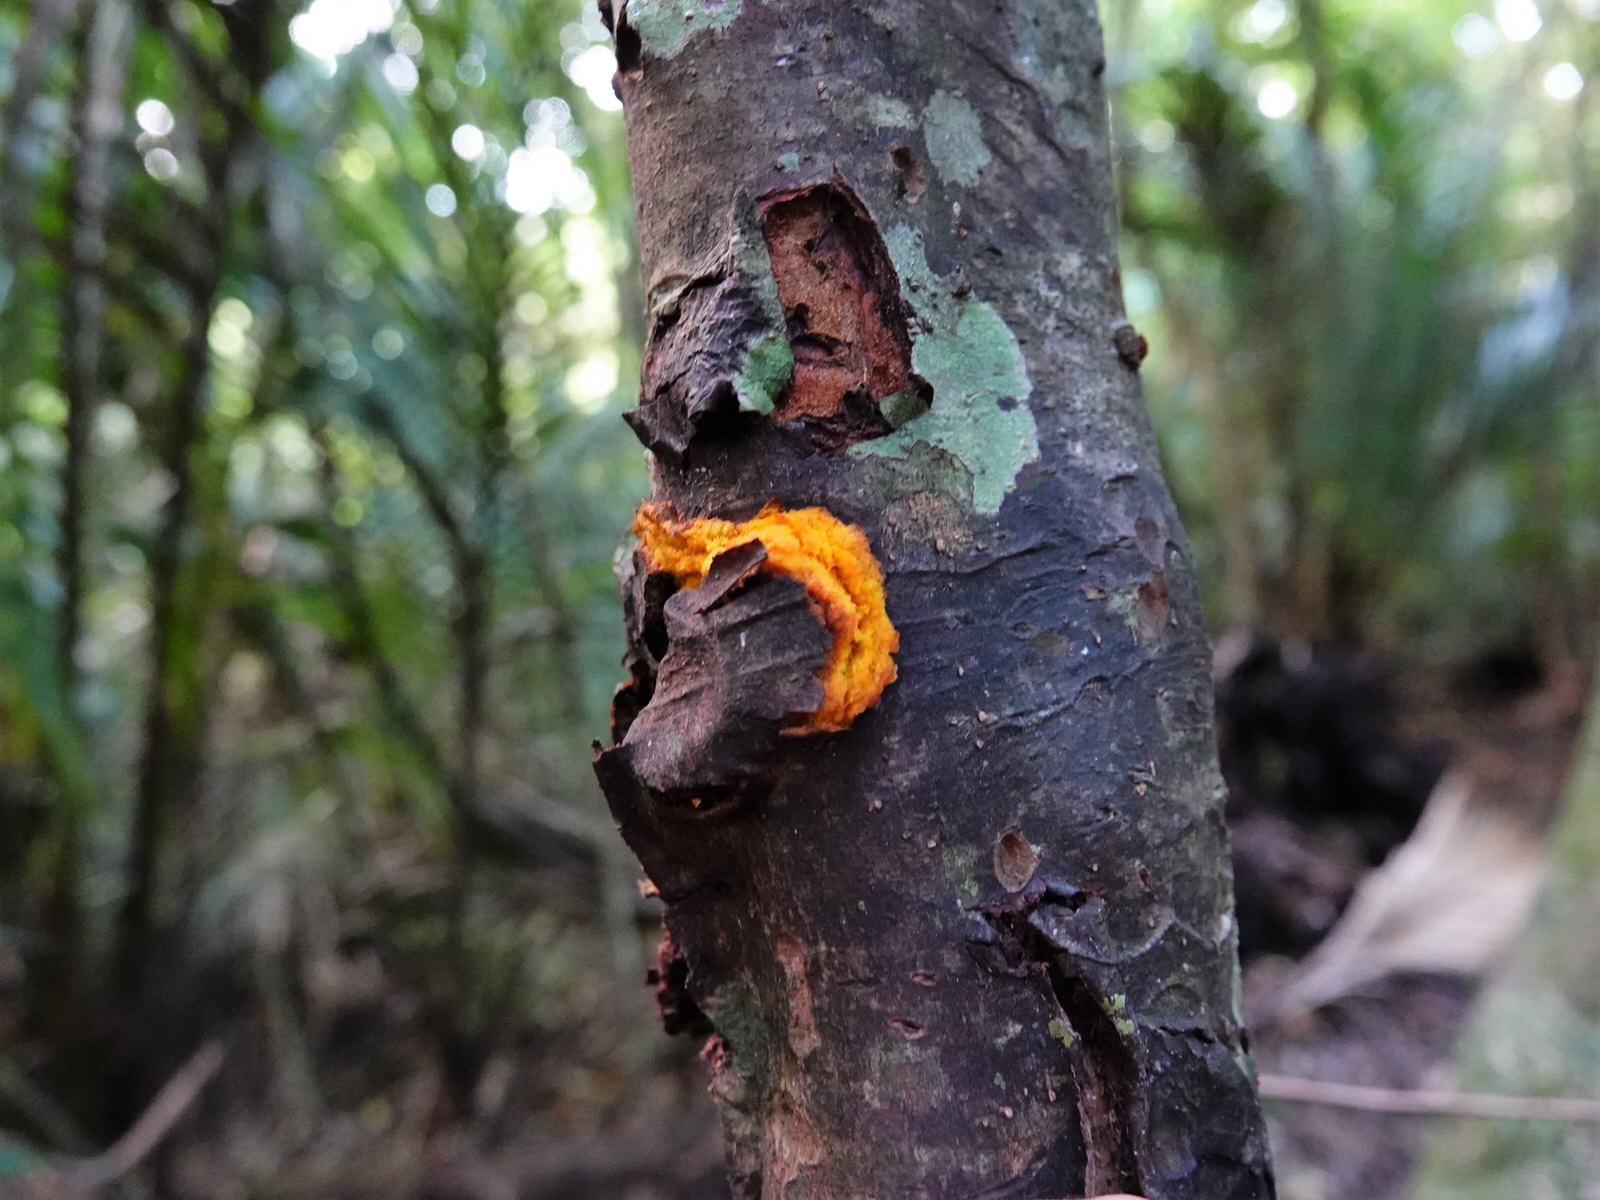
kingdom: Plantae
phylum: Tracheophyta
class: Magnoliopsida
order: Gentianales
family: Rubiaceae
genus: Coprosma
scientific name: Coprosma autumnalis
